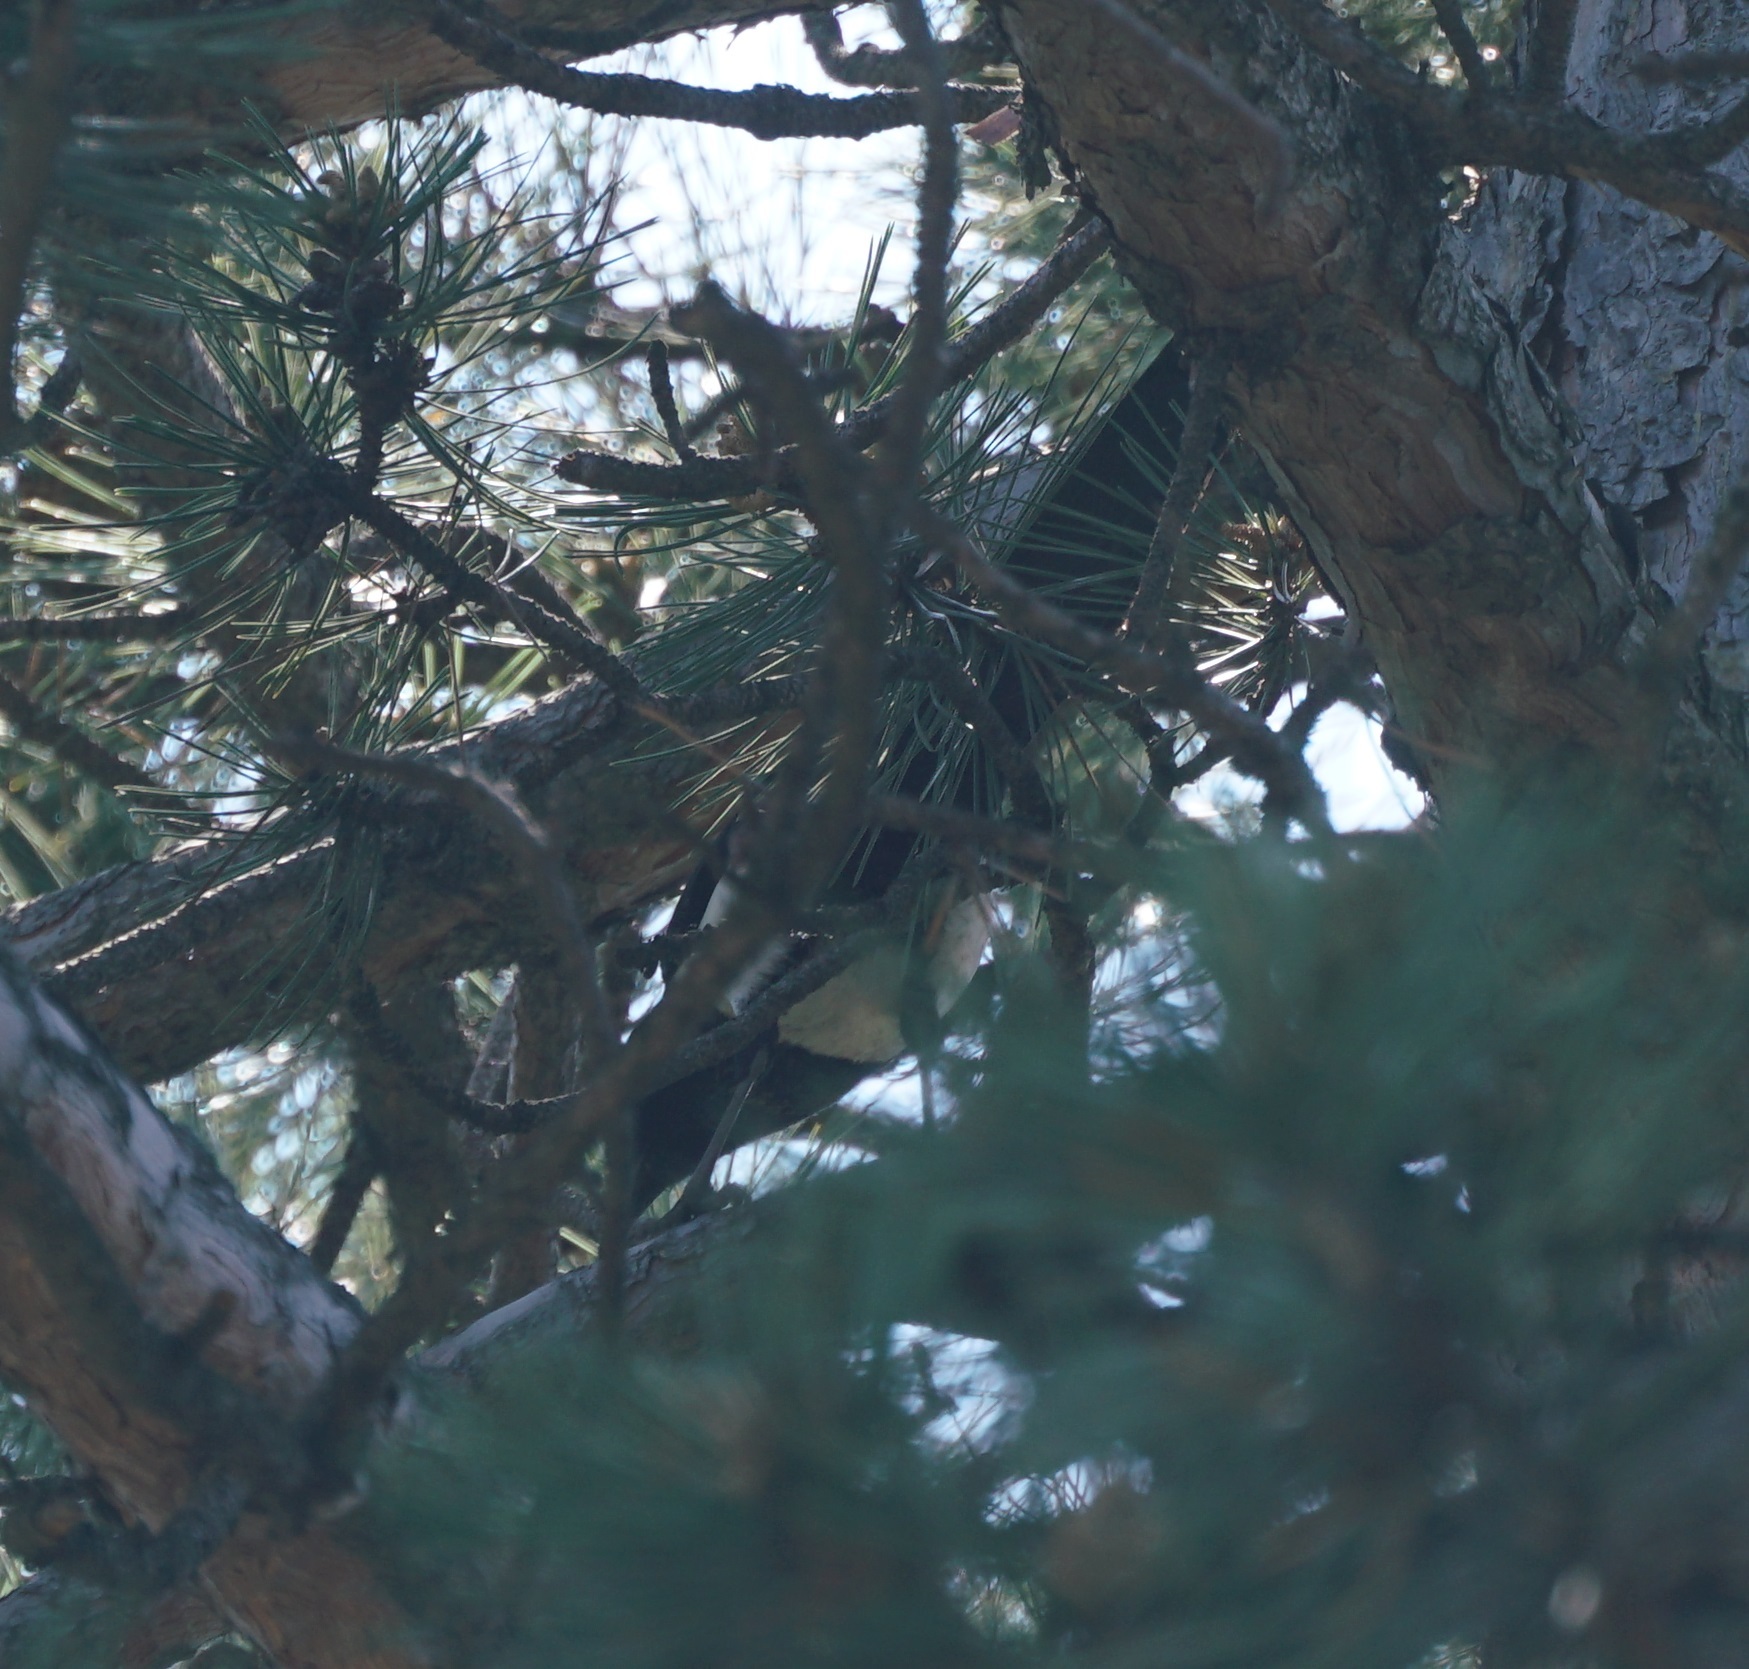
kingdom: Animalia
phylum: Chordata
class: Aves
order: Passeriformes
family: Corvidae
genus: Pica
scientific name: Pica pica
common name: Eurasian magpie
